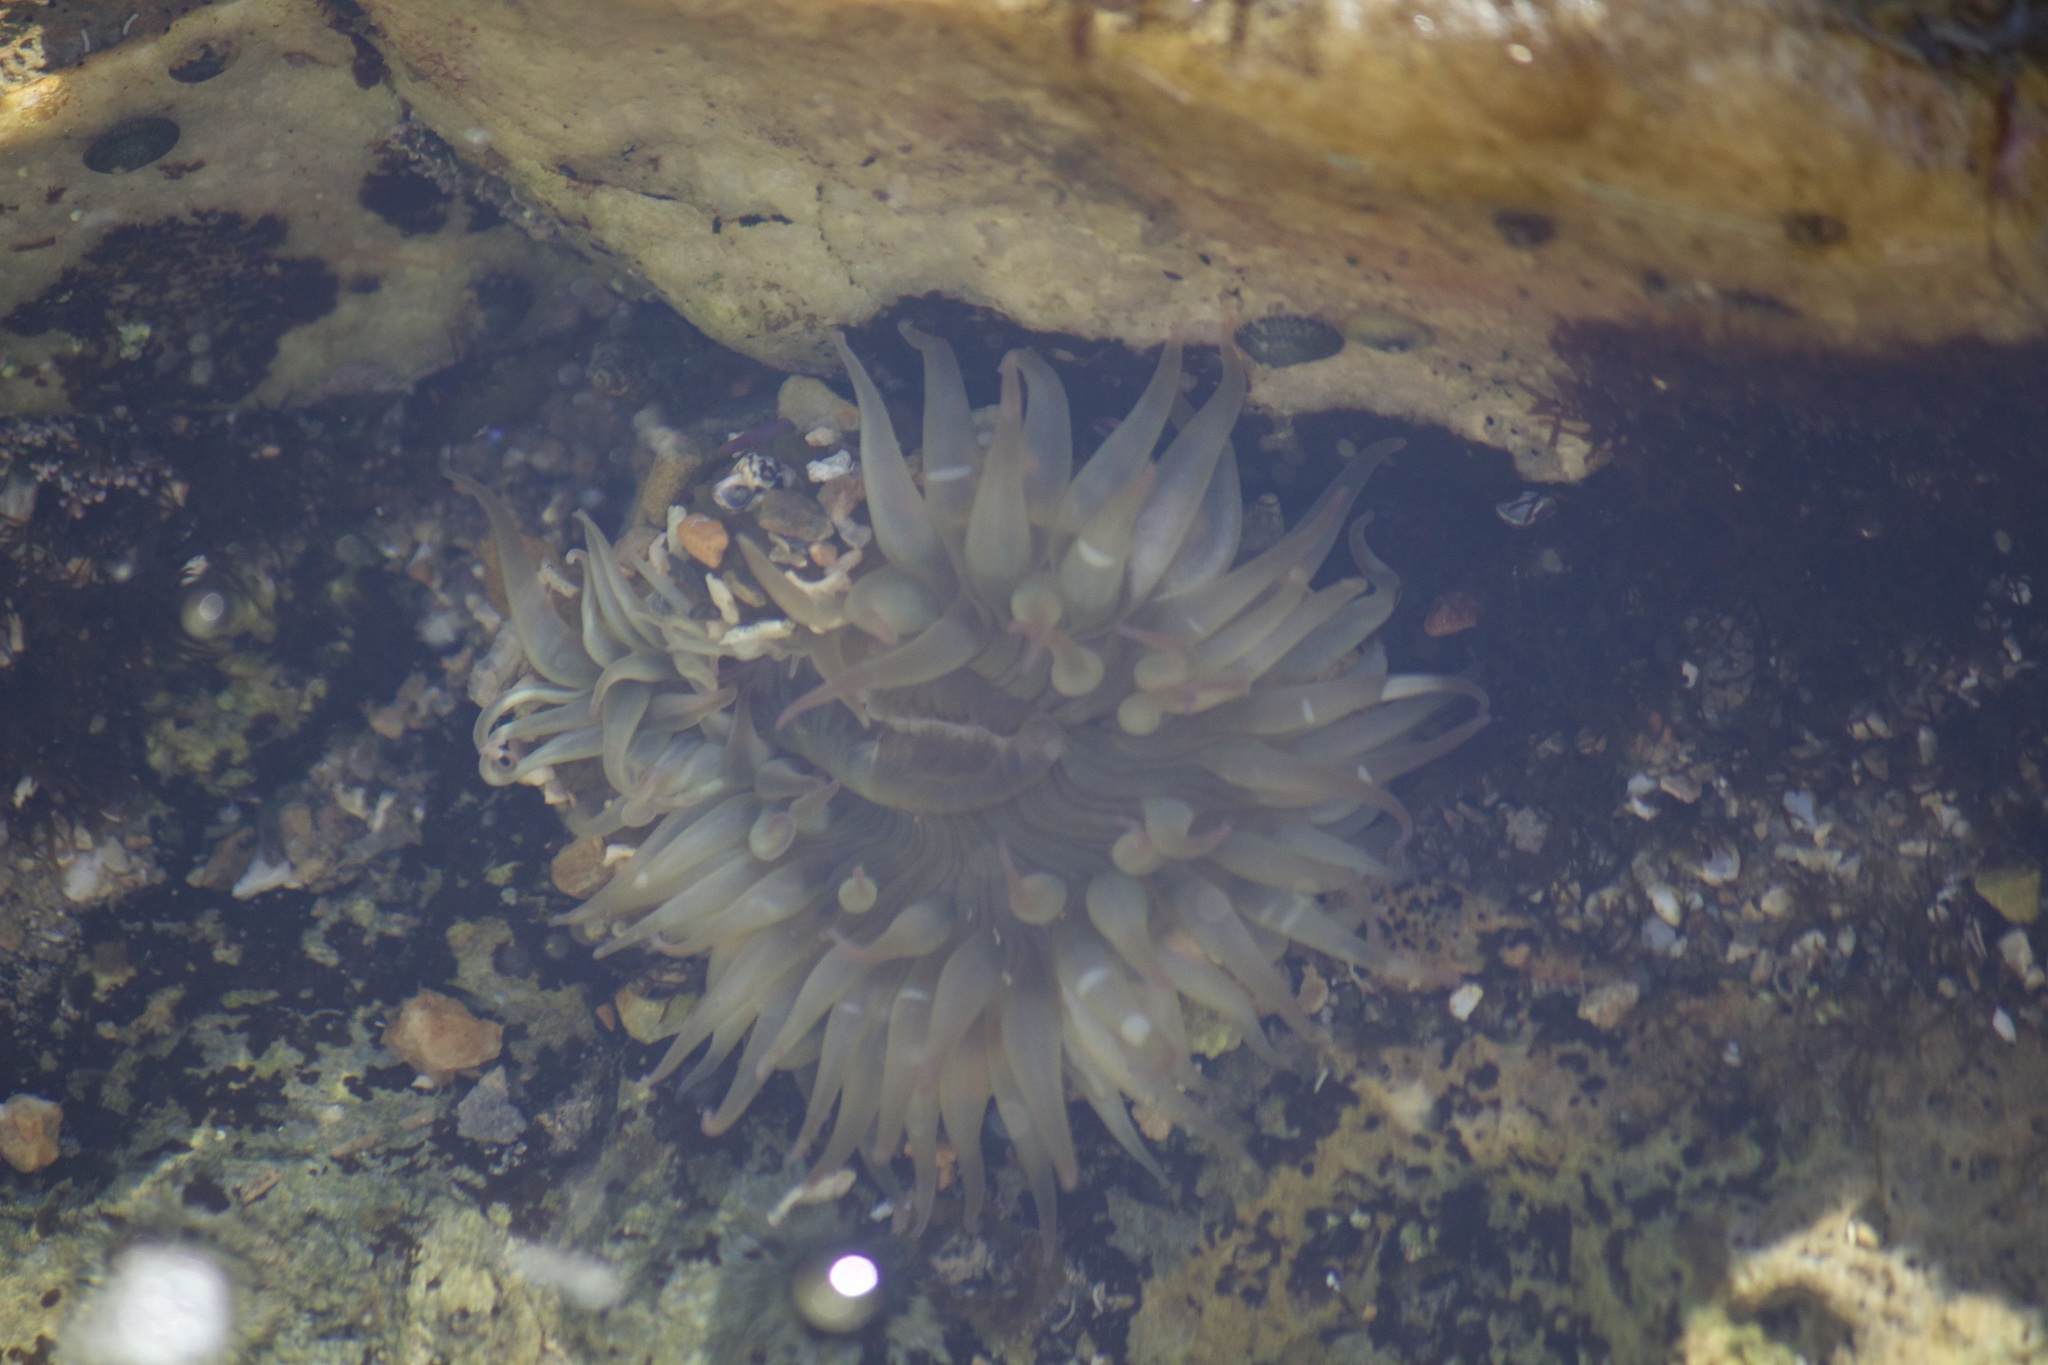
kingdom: Animalia
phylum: Cnidaria
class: Anthozoa
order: Actiniaria
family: Actiniidae
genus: Anthopleura
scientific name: Anthopleura sola
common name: Sun anemone
